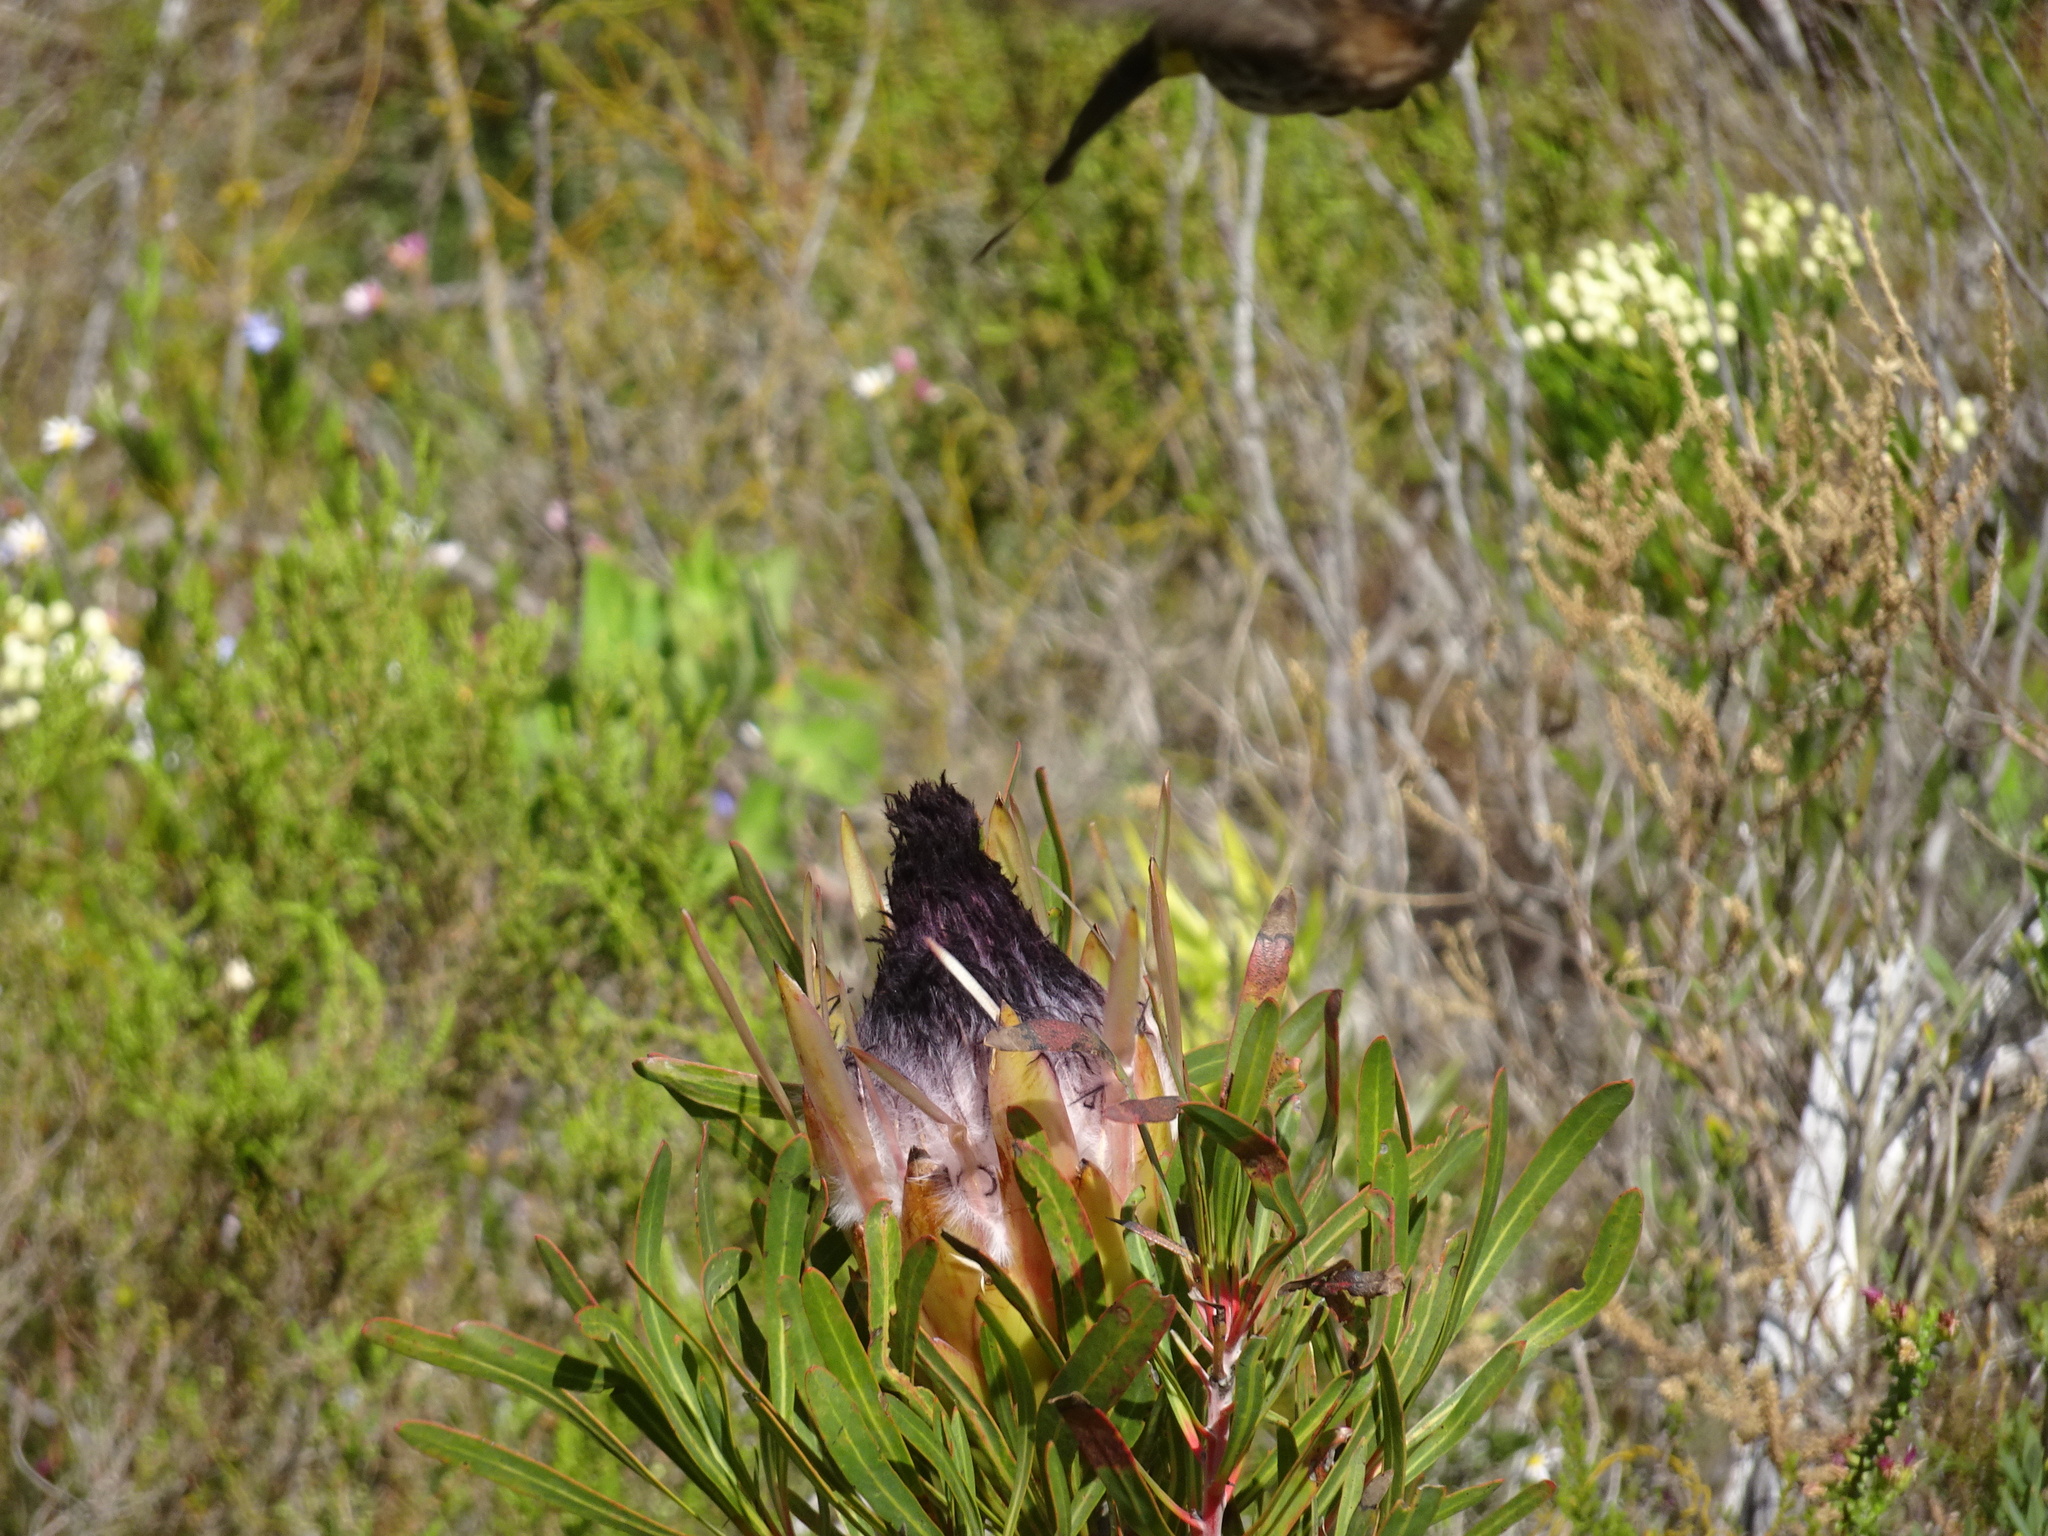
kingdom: Plantae
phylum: Tracheophyta
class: Magnoliopsida
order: Proteales
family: Proteaceae
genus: Protea
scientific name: Protea longifolia
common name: Long-leaf sugarbush
